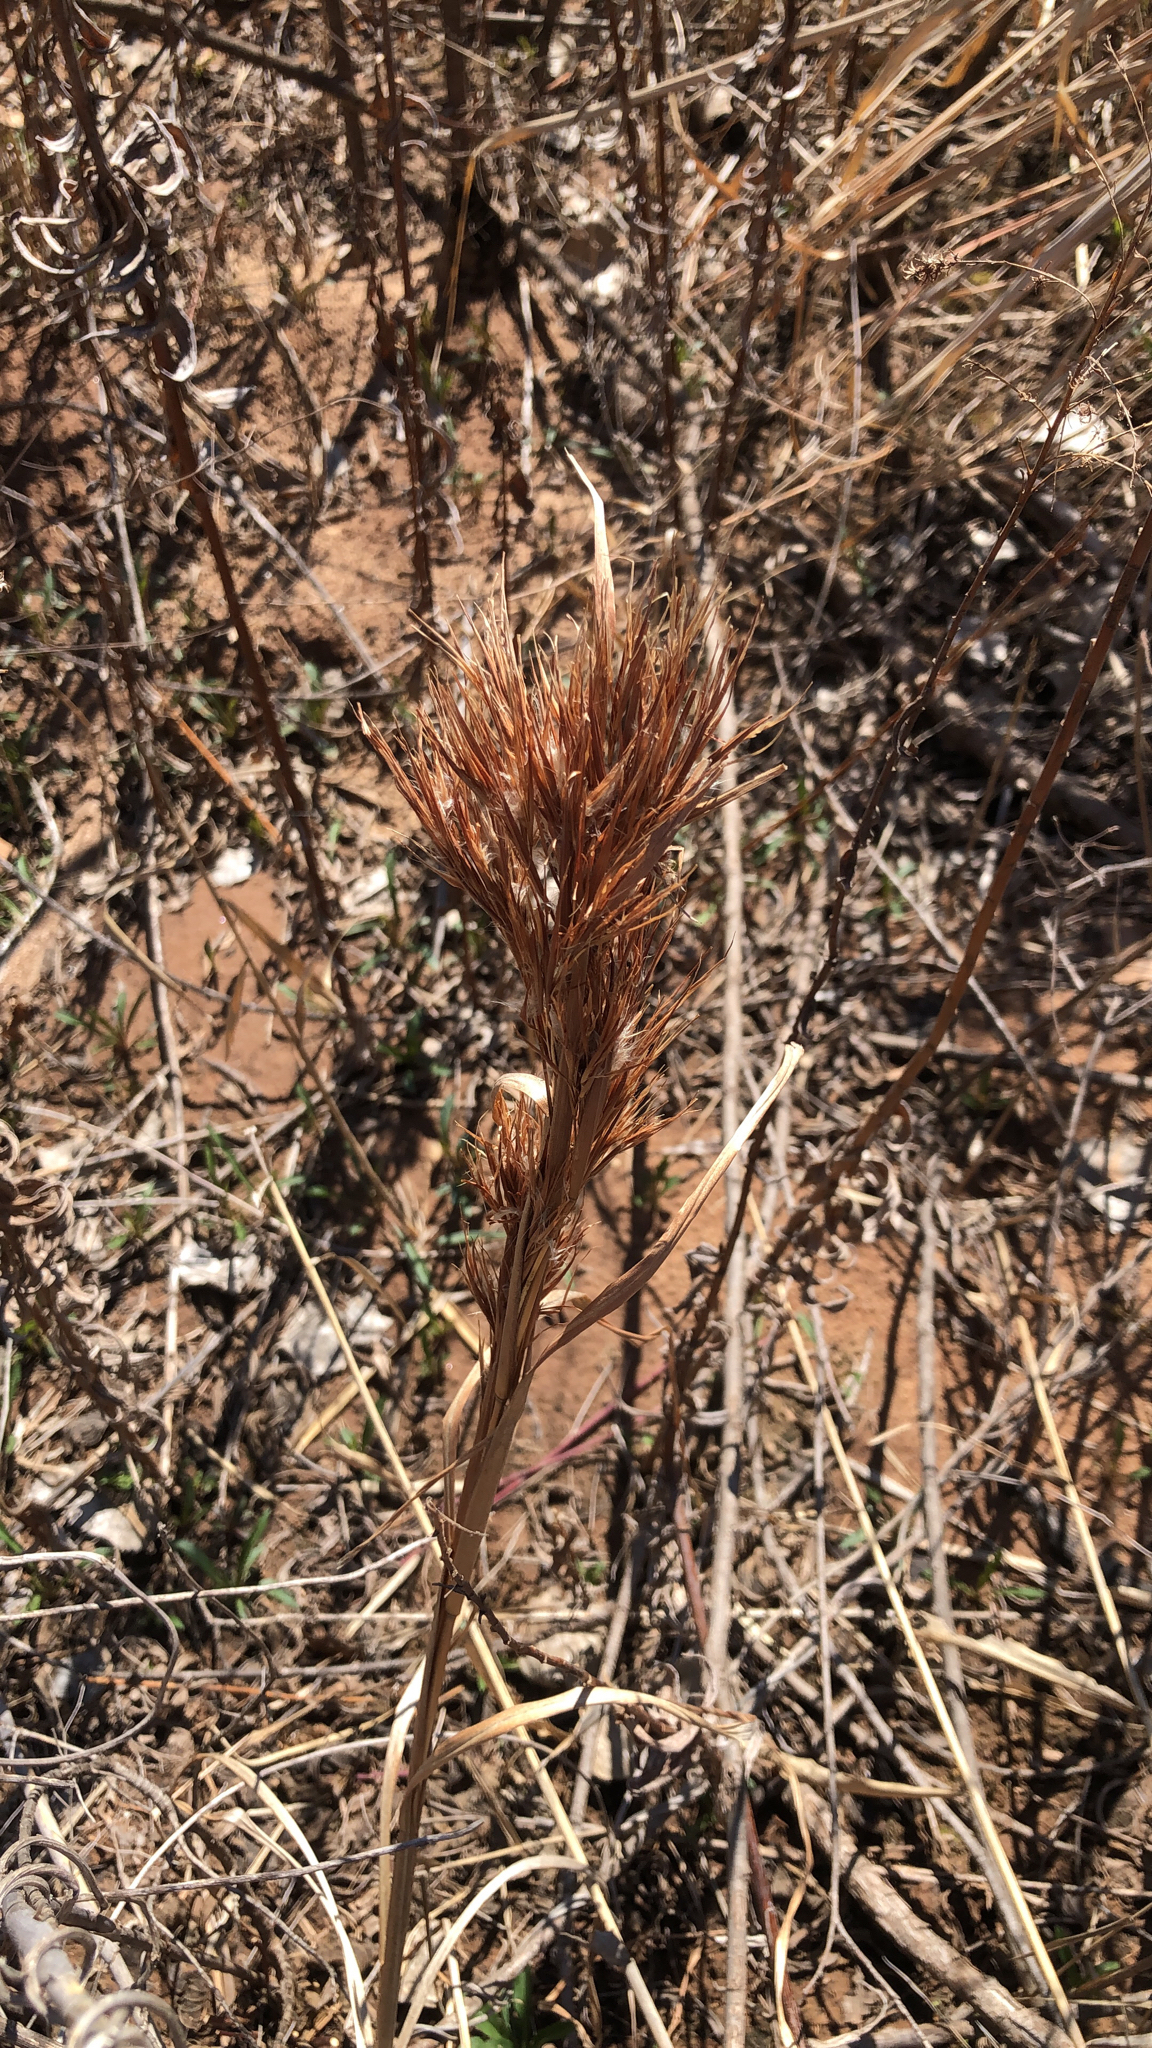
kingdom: Plantae
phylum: Tracheophyta
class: Liliopsida
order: Poales
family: Poaceae
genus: Andropogon
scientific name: Andropogon tenuispatheus
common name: Bushy bluestem
